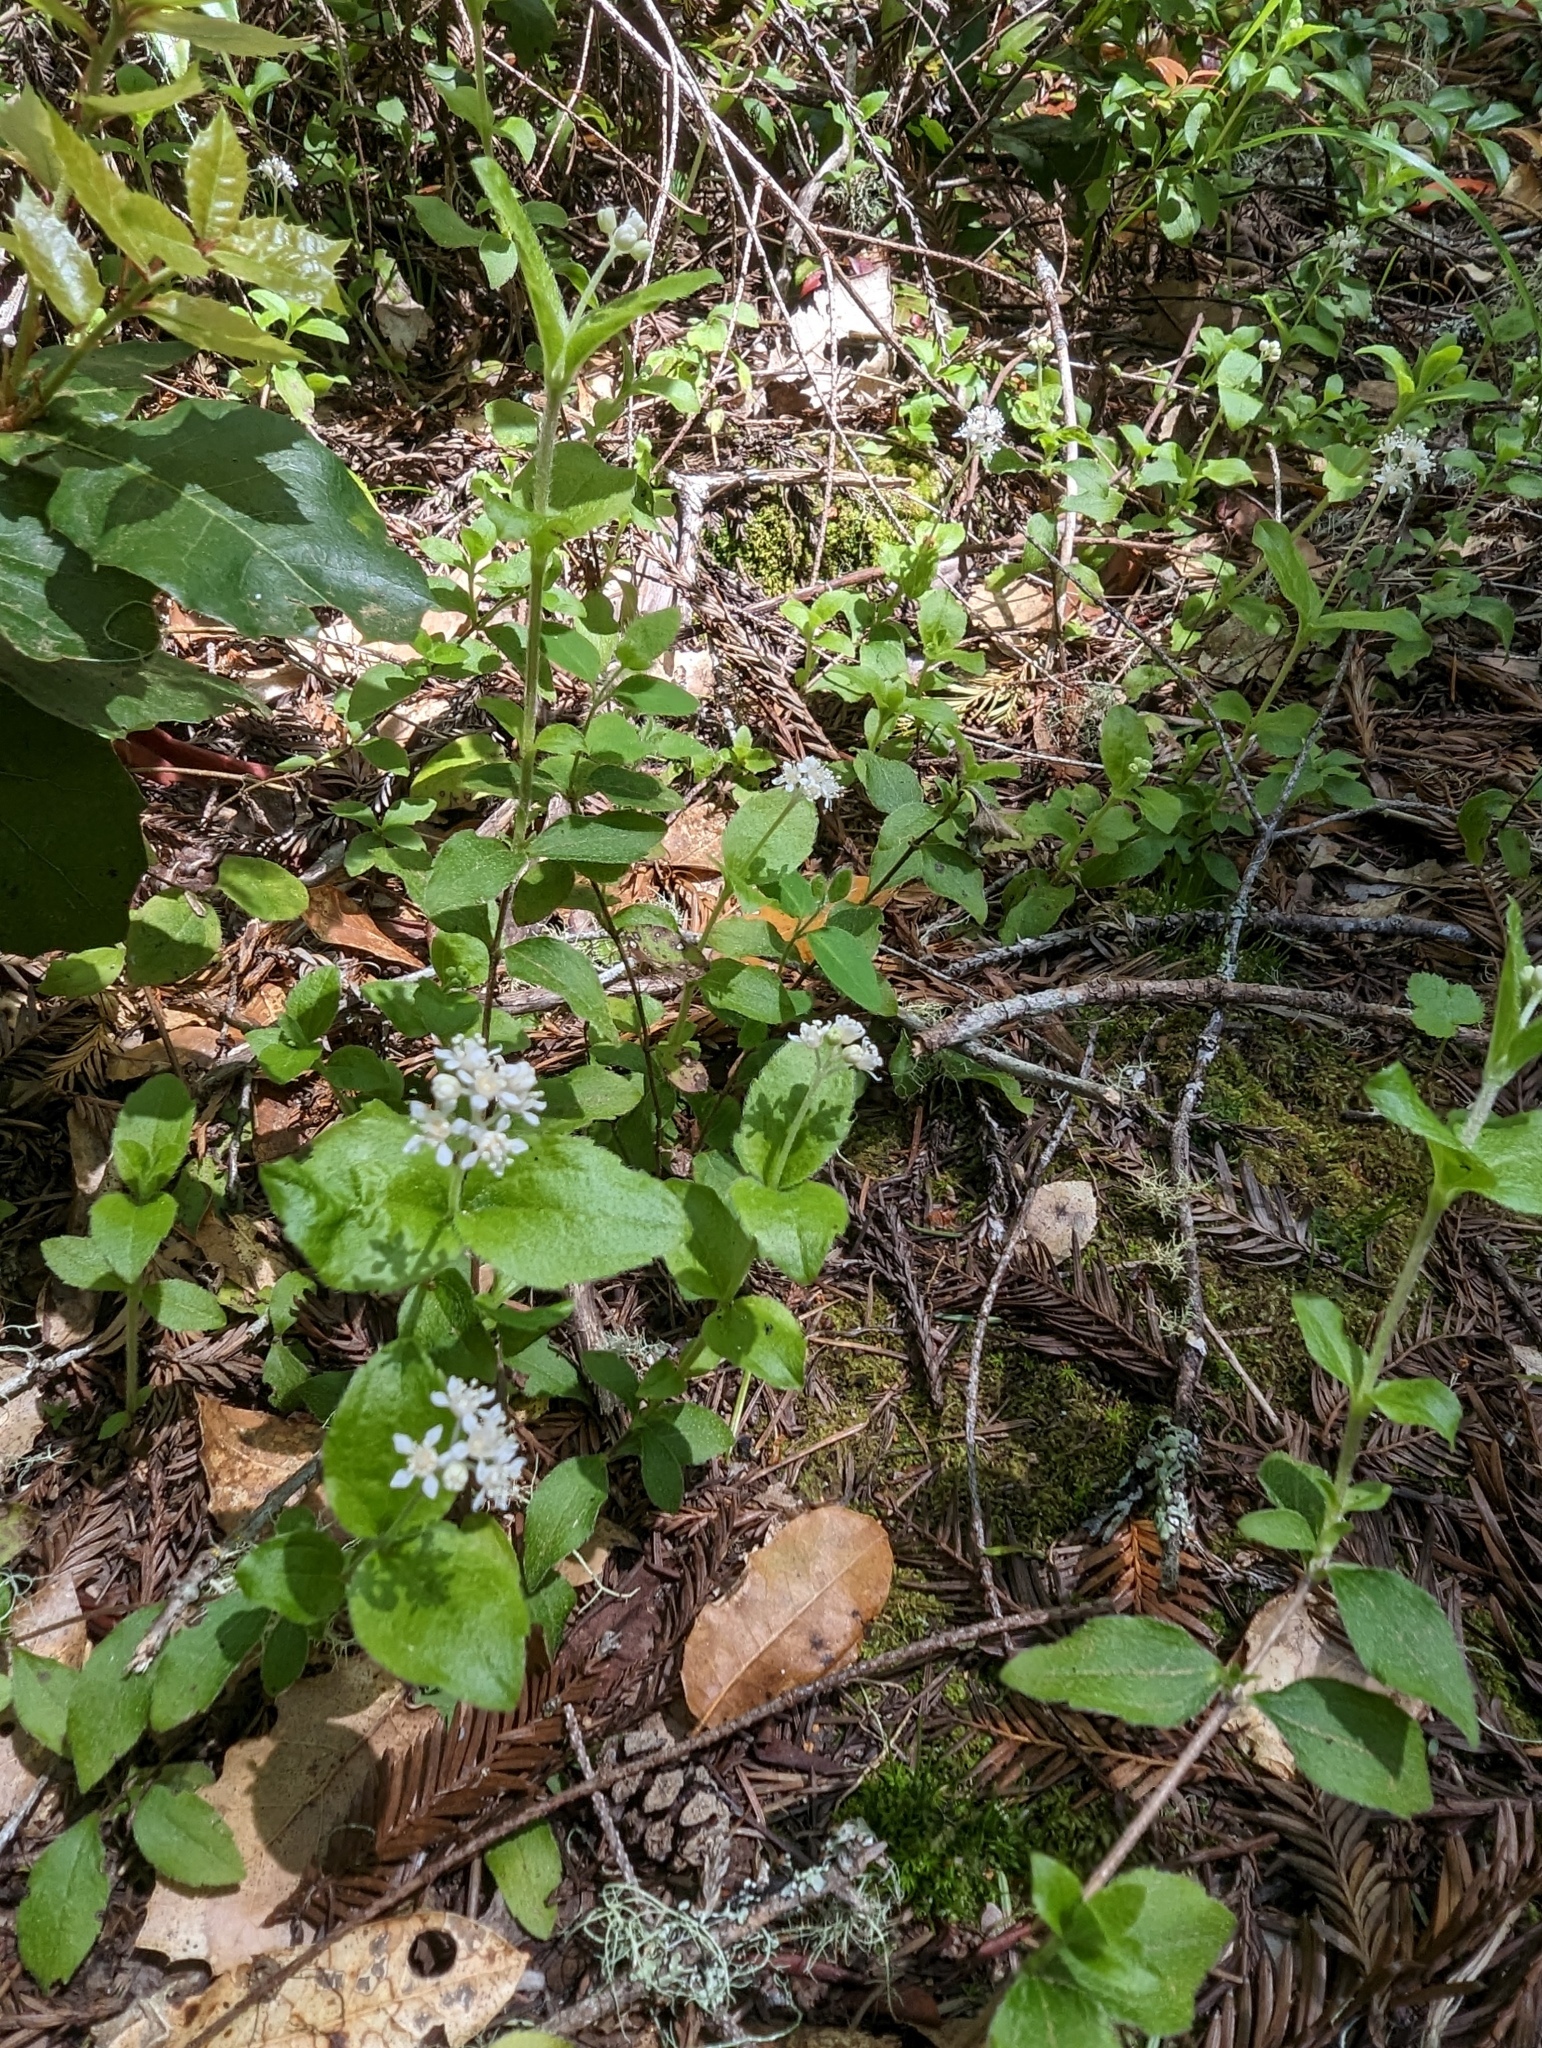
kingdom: Plantae
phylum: Tracheophyta
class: Magnoliopsida
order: Cornales
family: Hydrangeaceae
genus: Whipplea
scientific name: Whipplea modesta
